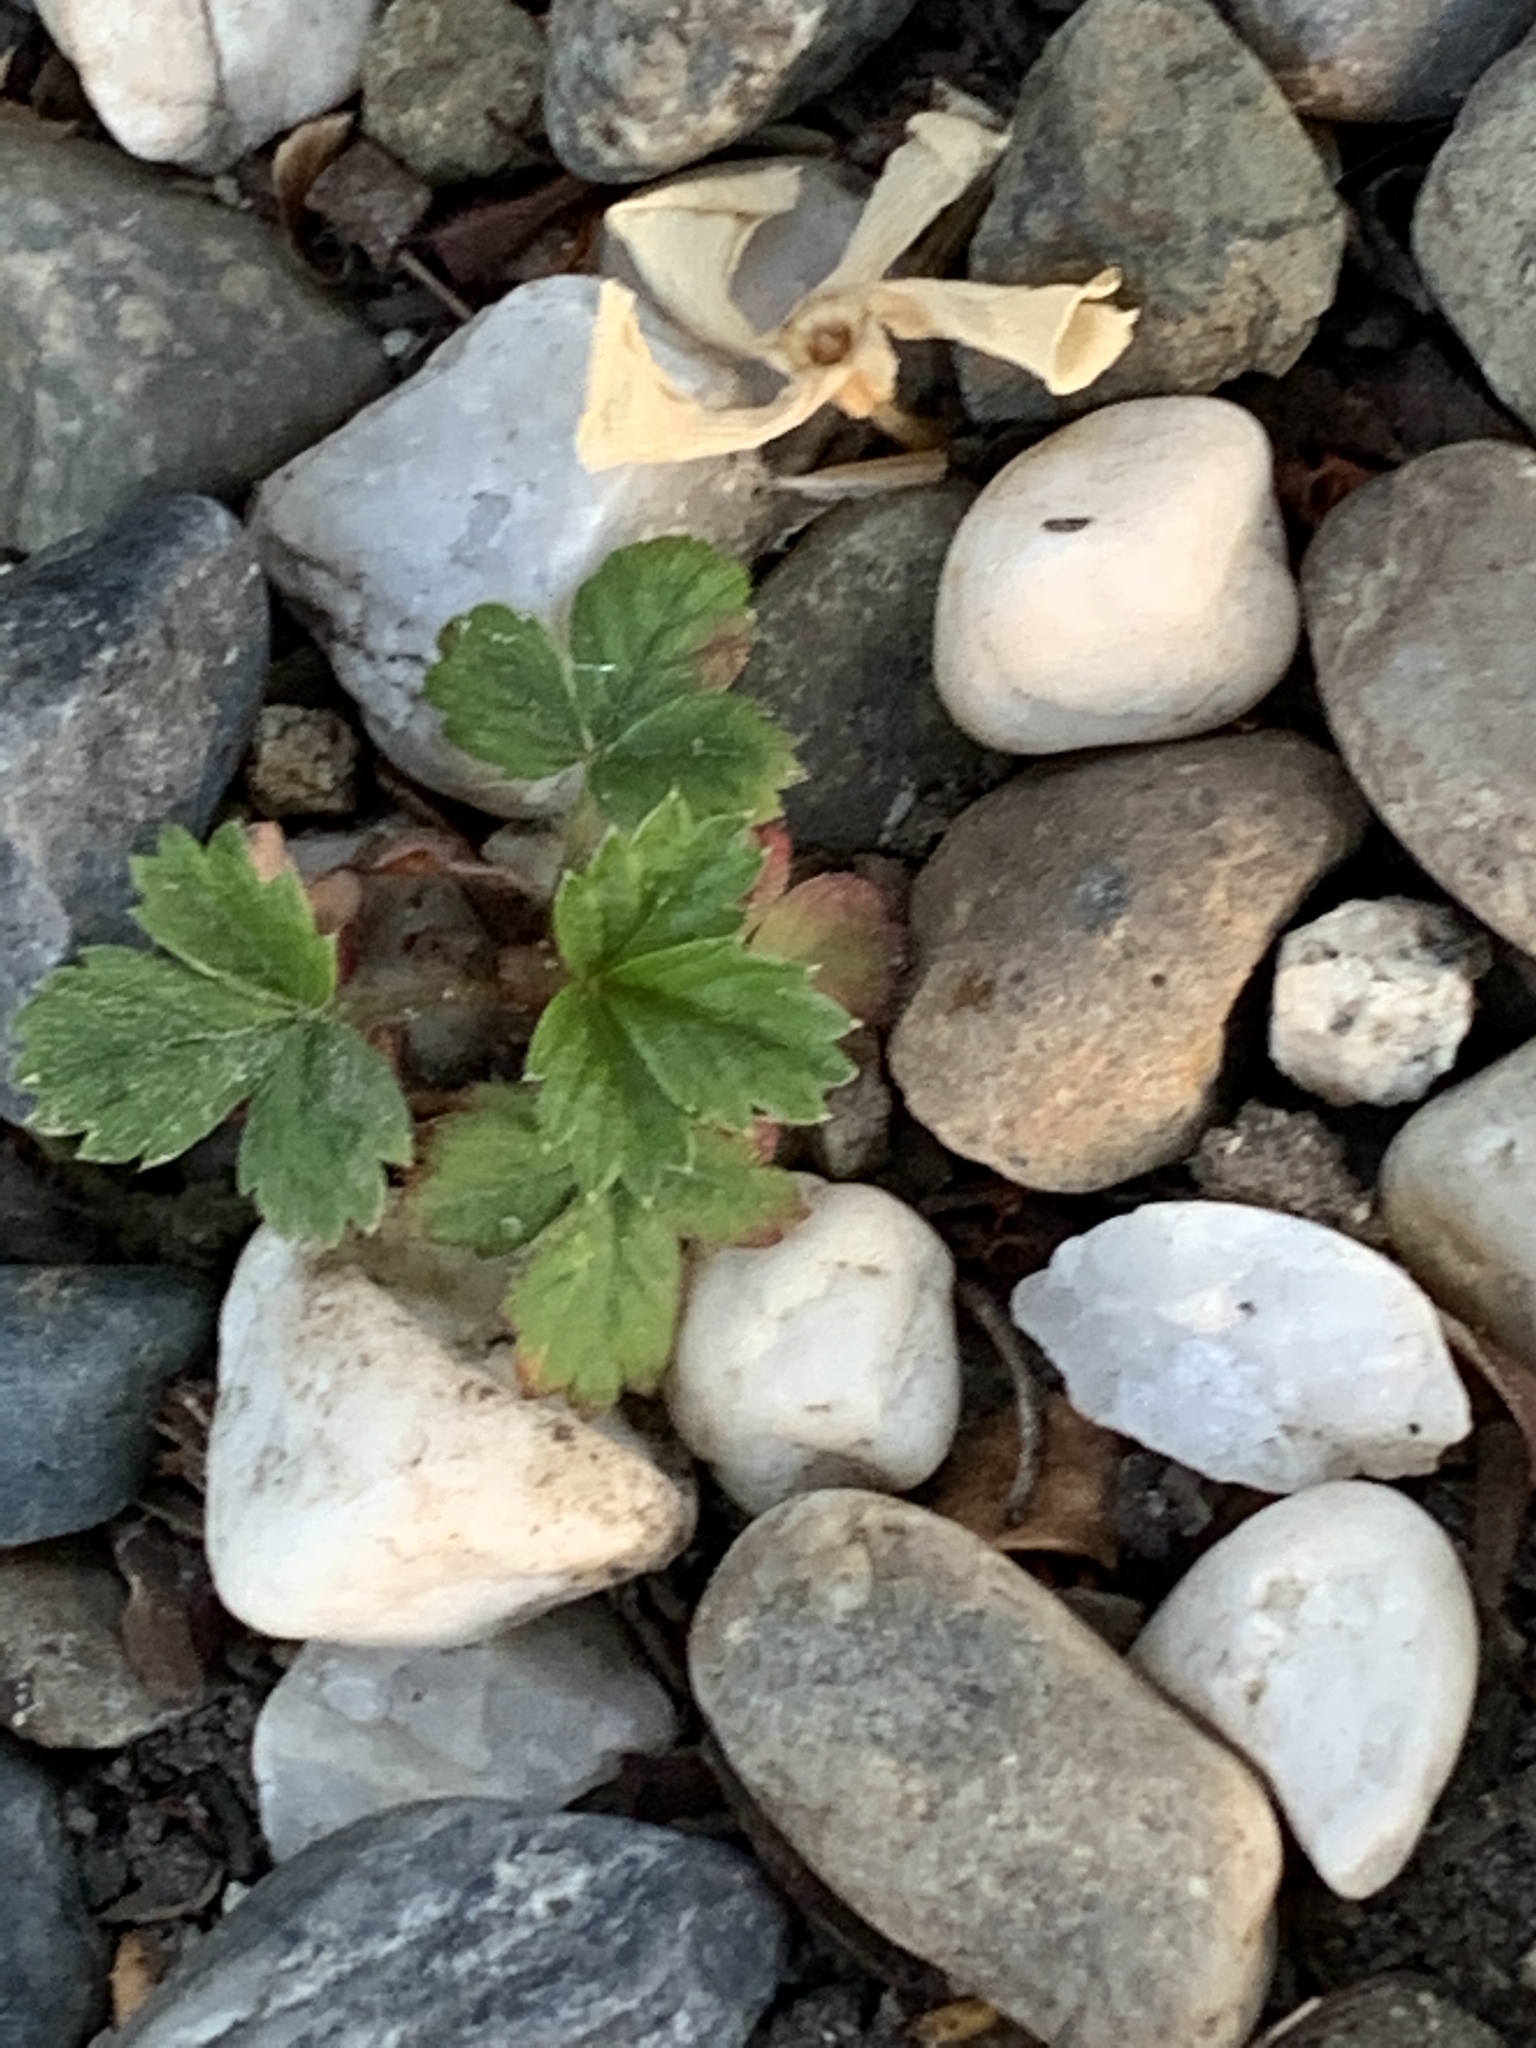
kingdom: Plantae
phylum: Tracheophyta
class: Magnoliopsida
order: Rosales
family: Rosaceae
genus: Fragaria
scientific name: Fragaria vesca
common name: Wild strawberry
